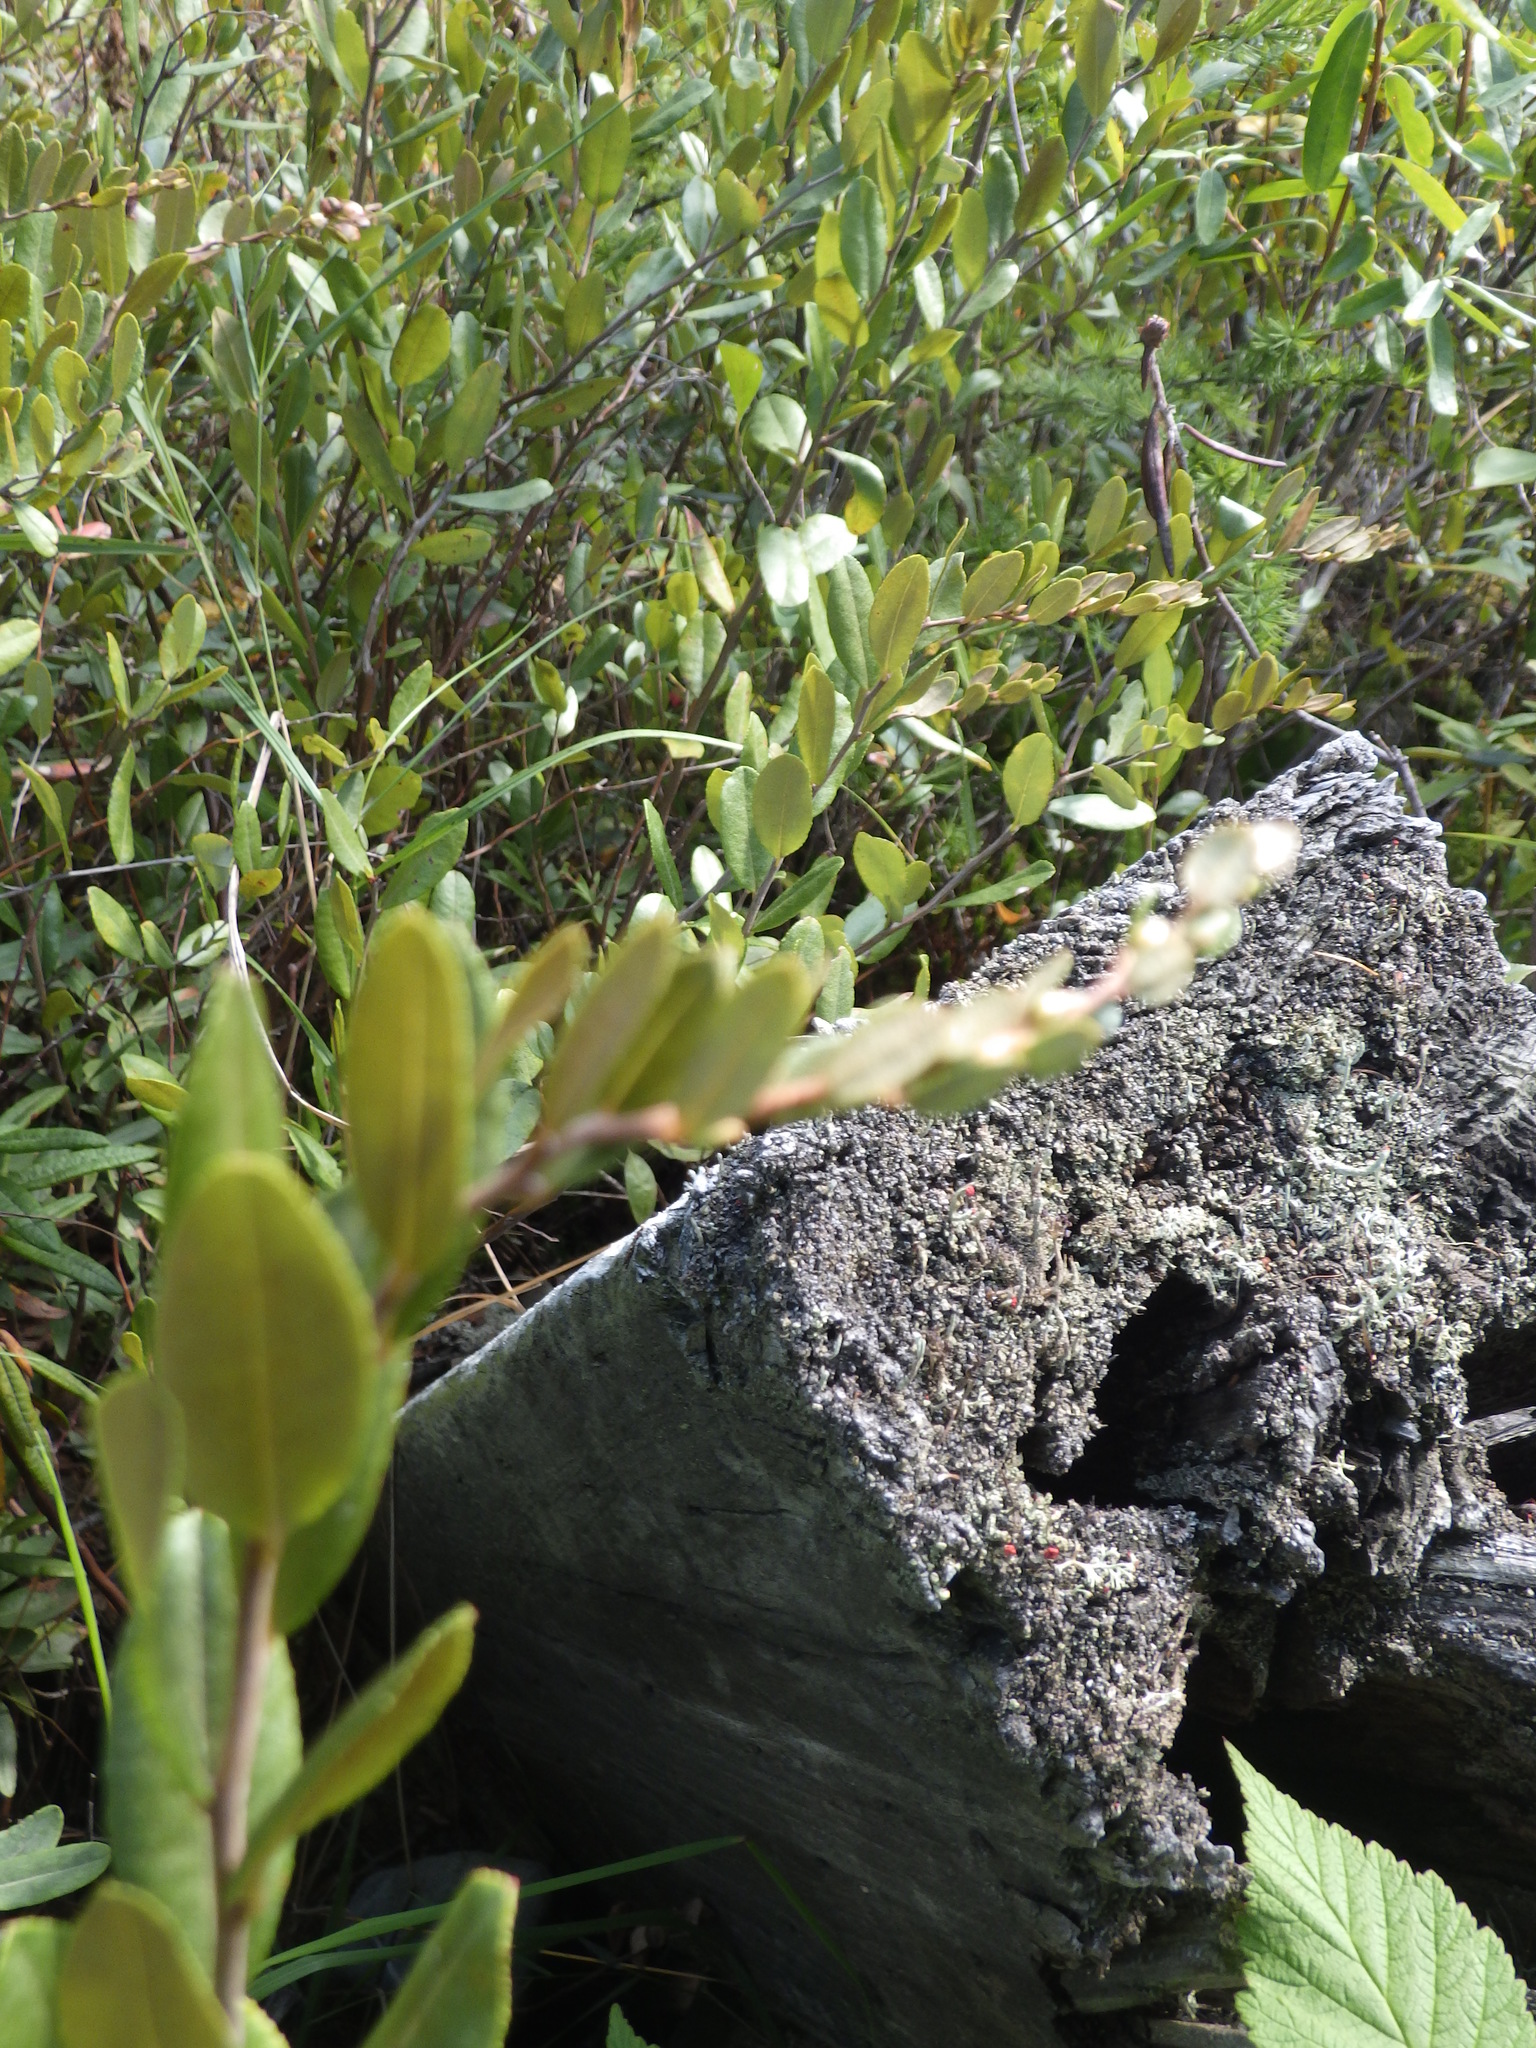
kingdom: Plantae
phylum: Tracheophyta
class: Magnoliopsida
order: Ericales
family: Ericaceae
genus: Chamaedaphne
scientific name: Chamaedaphne calyculata
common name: Leatherleaf
